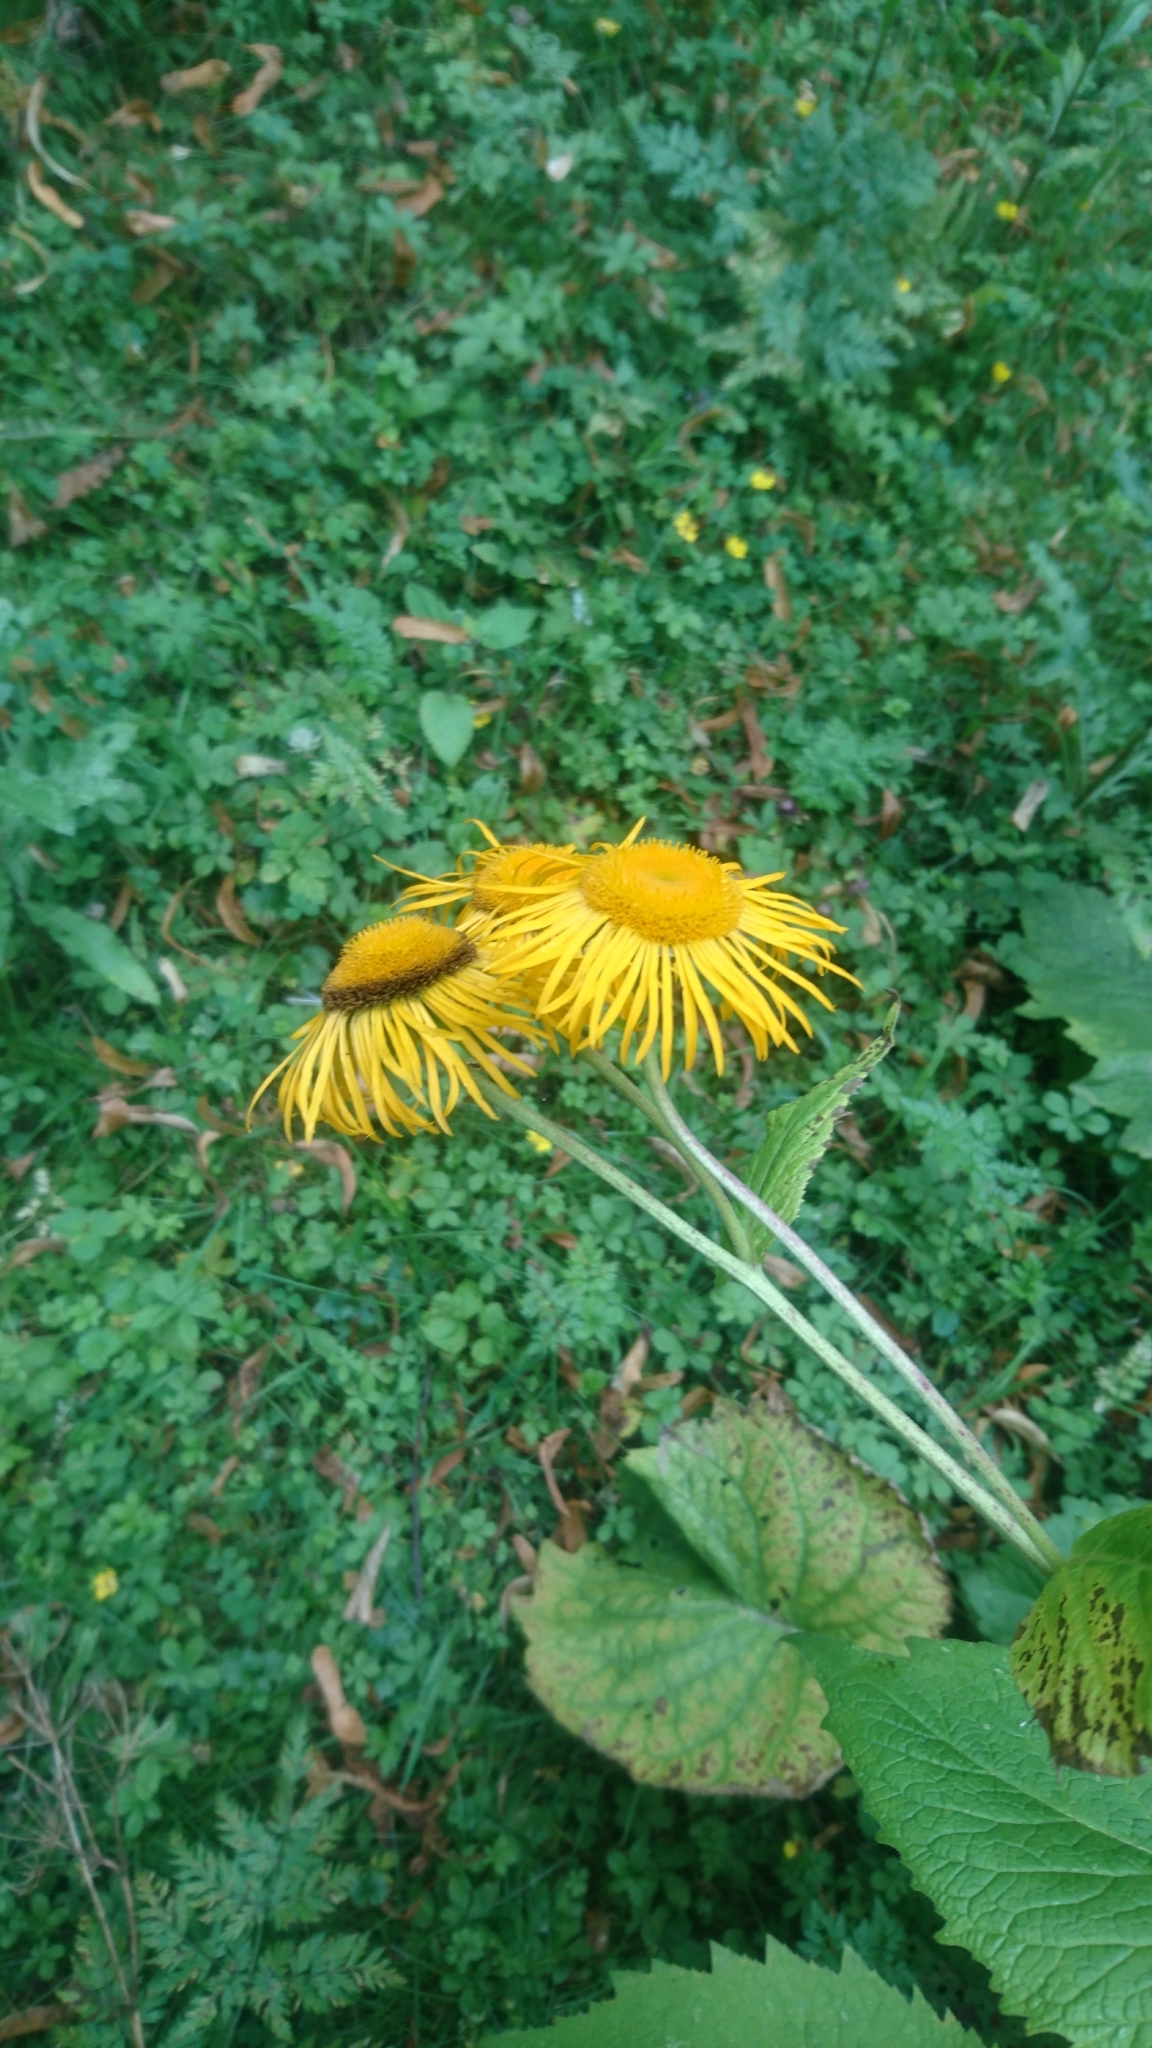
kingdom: Plantae
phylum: Tracheophyta
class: Magnoliopsida
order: Asterales
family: Asteraceae
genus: Telekia
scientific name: Telekia speciosa
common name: Yellow oxeye
